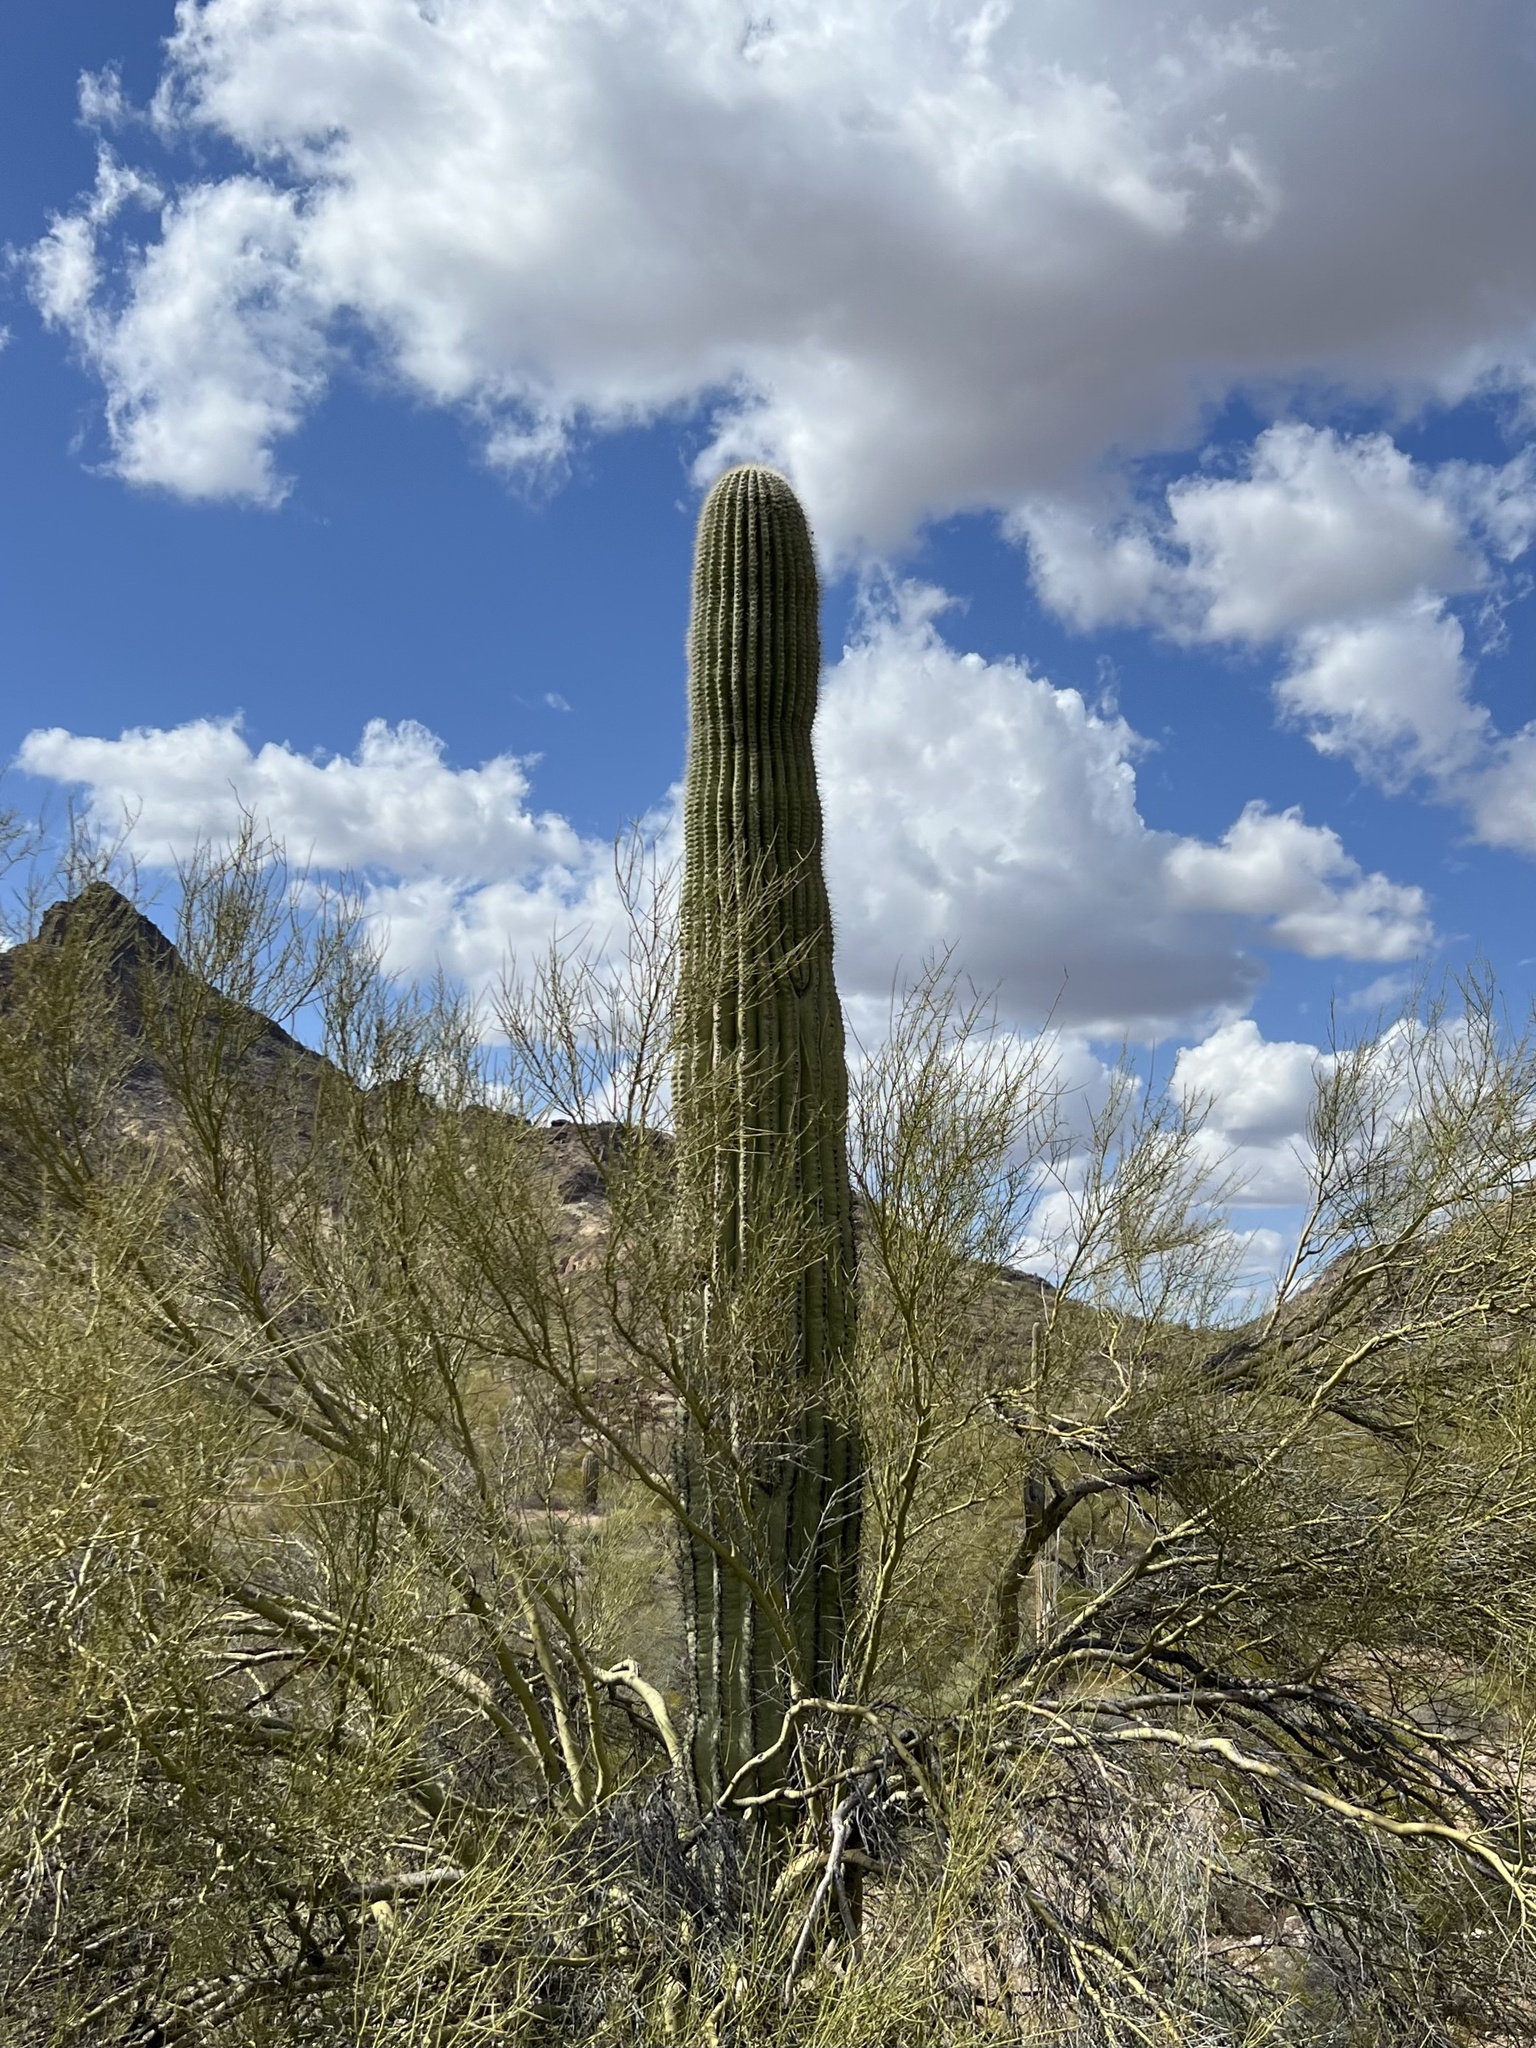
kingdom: Plantae
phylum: Tracheophyta
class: Magnoliopsida
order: Caryophyllales
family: Cactaceae
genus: Carnegiea
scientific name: Carnegiea gigantea
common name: Saguaro
